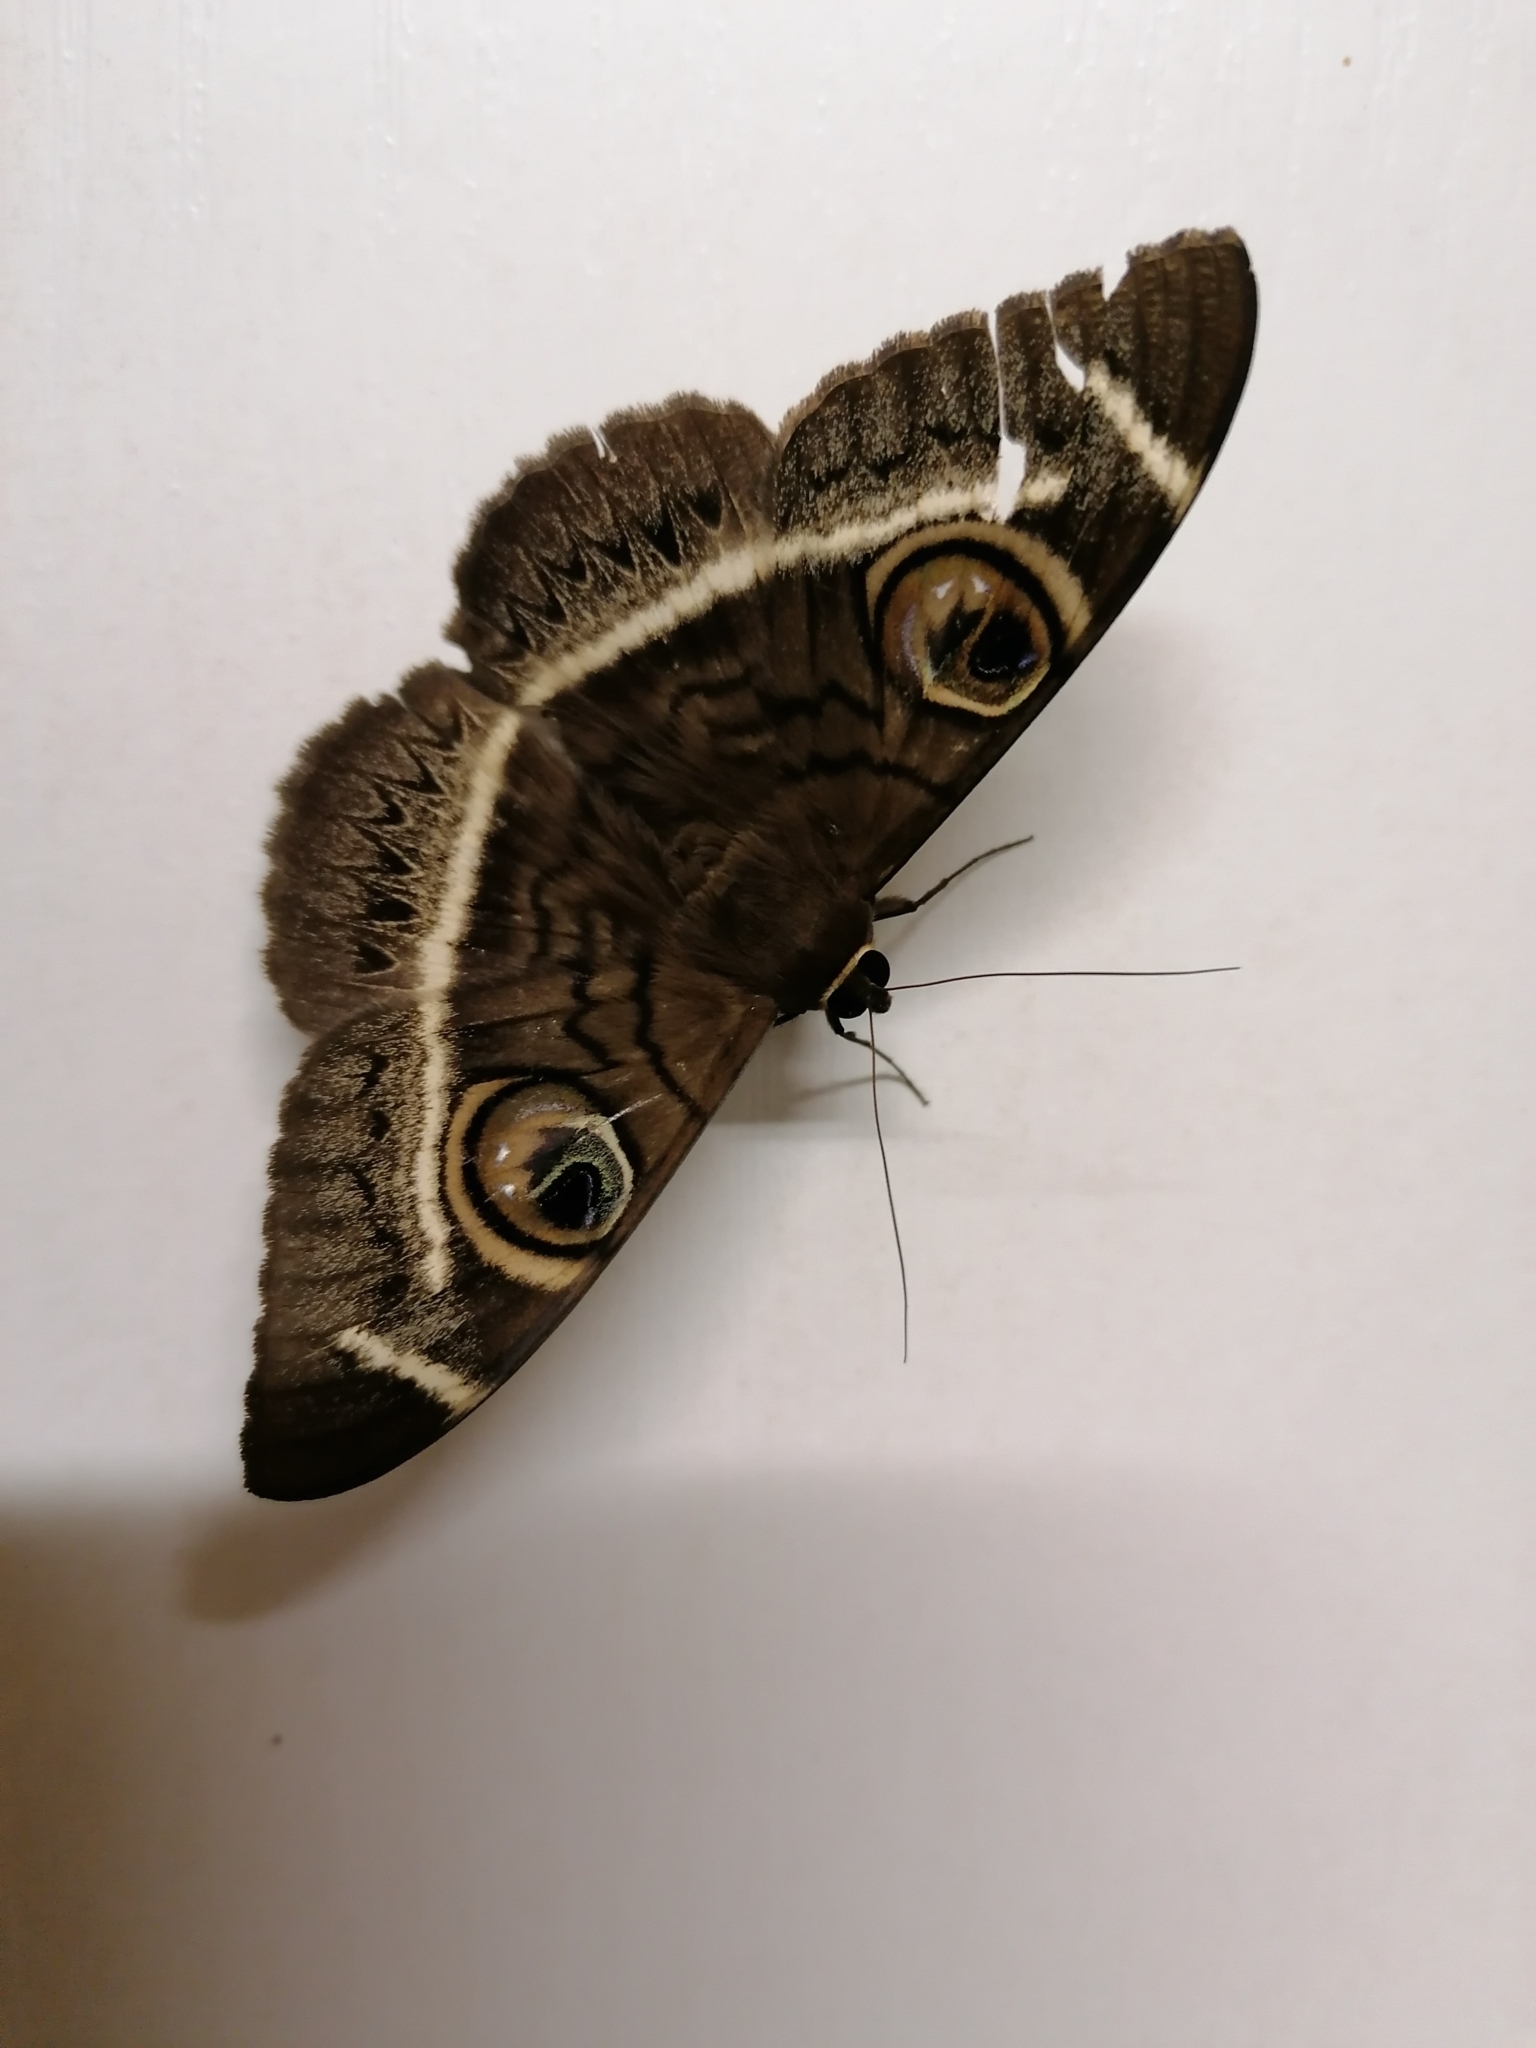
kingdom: Animalia
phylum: Arthropoda
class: Insecta
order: Lepidoptera
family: Erebidae
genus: Cyligramma
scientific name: Cyligramma latona
